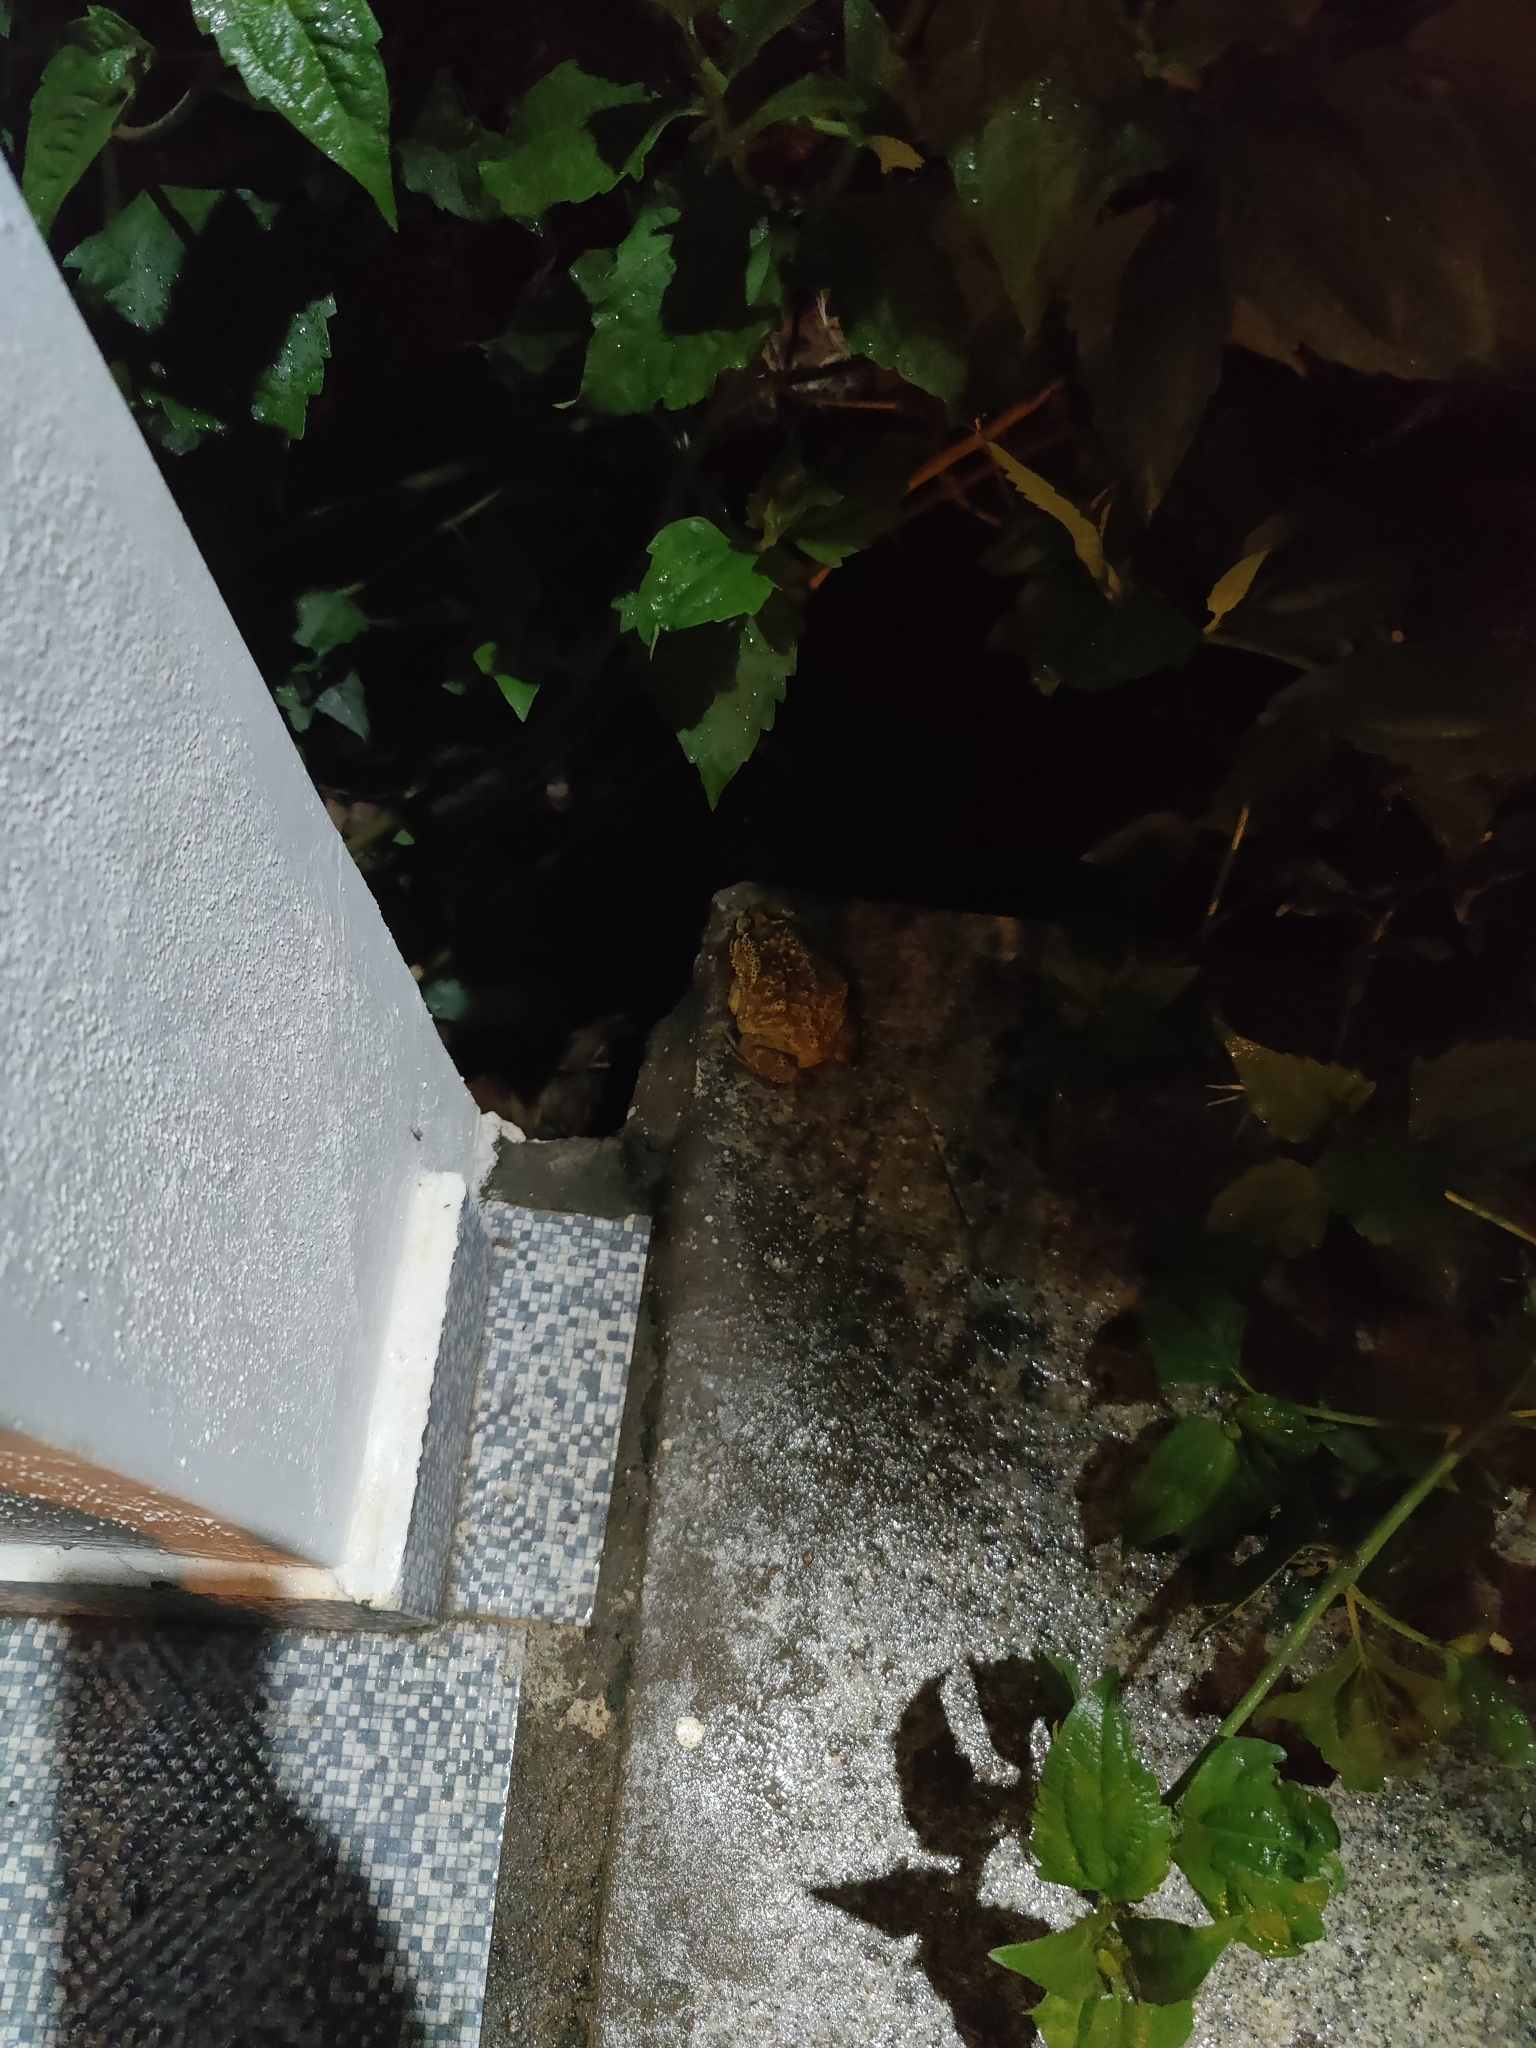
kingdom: Animalia
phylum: Chordata
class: Amphibia
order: Anura
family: Bufonidae
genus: Duttaphrynus
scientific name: Duttaphrynus melanostictus
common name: Common sunda toad
